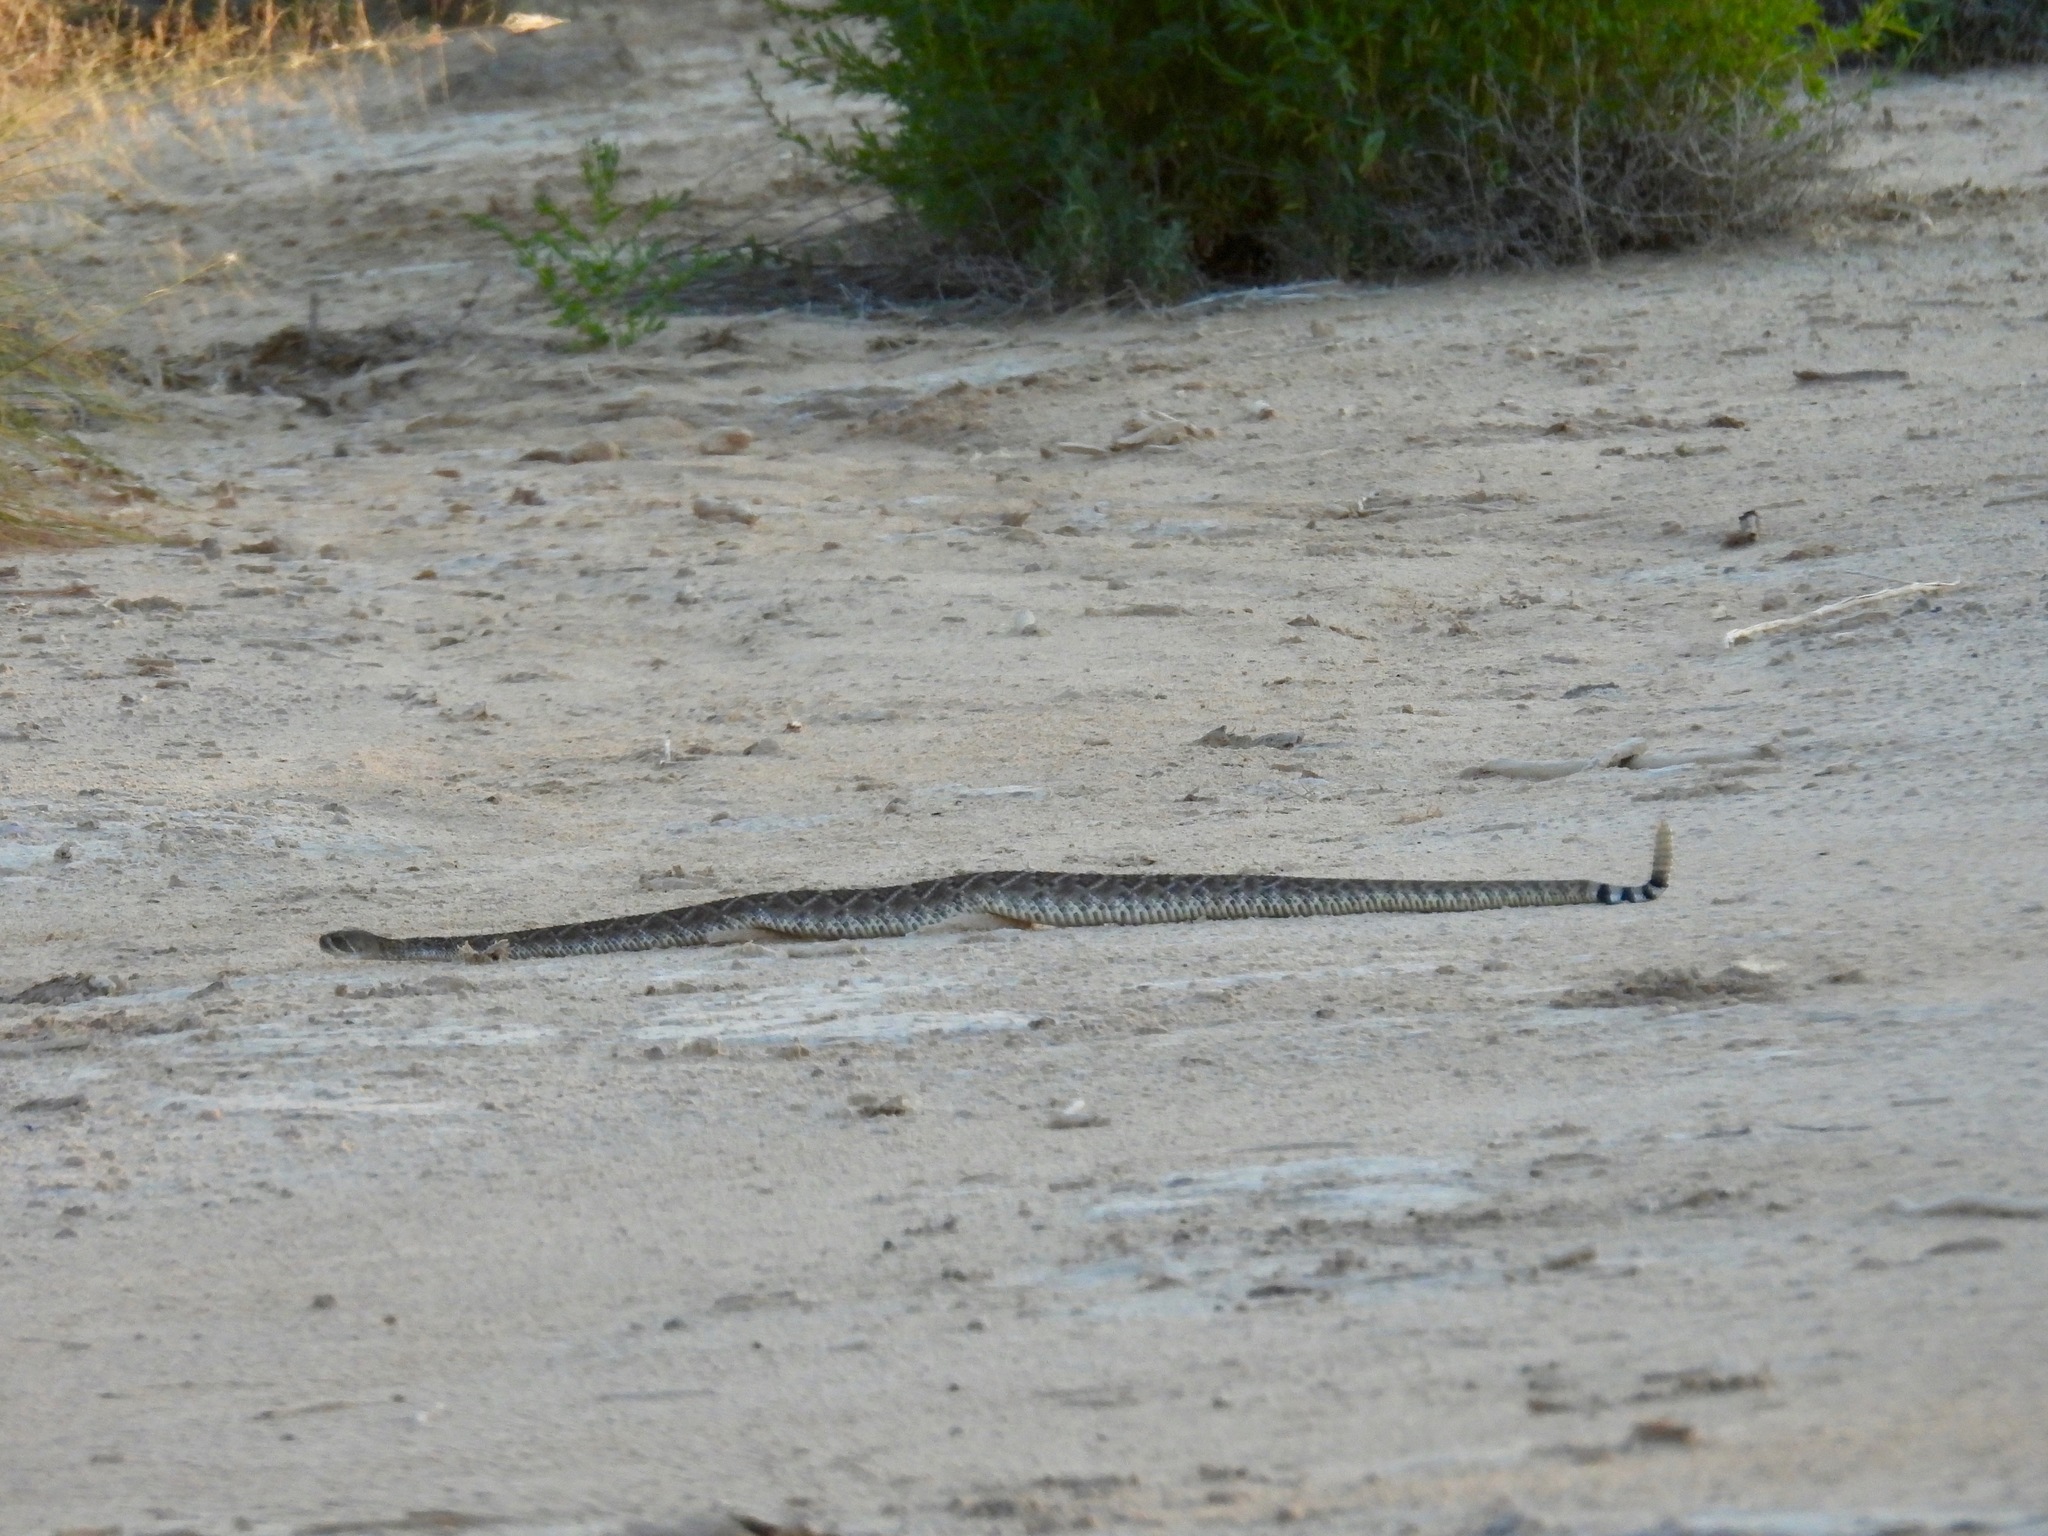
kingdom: Animalia
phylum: Chordata
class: Squamata
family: Viperidae
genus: Crotalus
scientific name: Crotalus atrox
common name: Western diamond-backed rattlesnake
